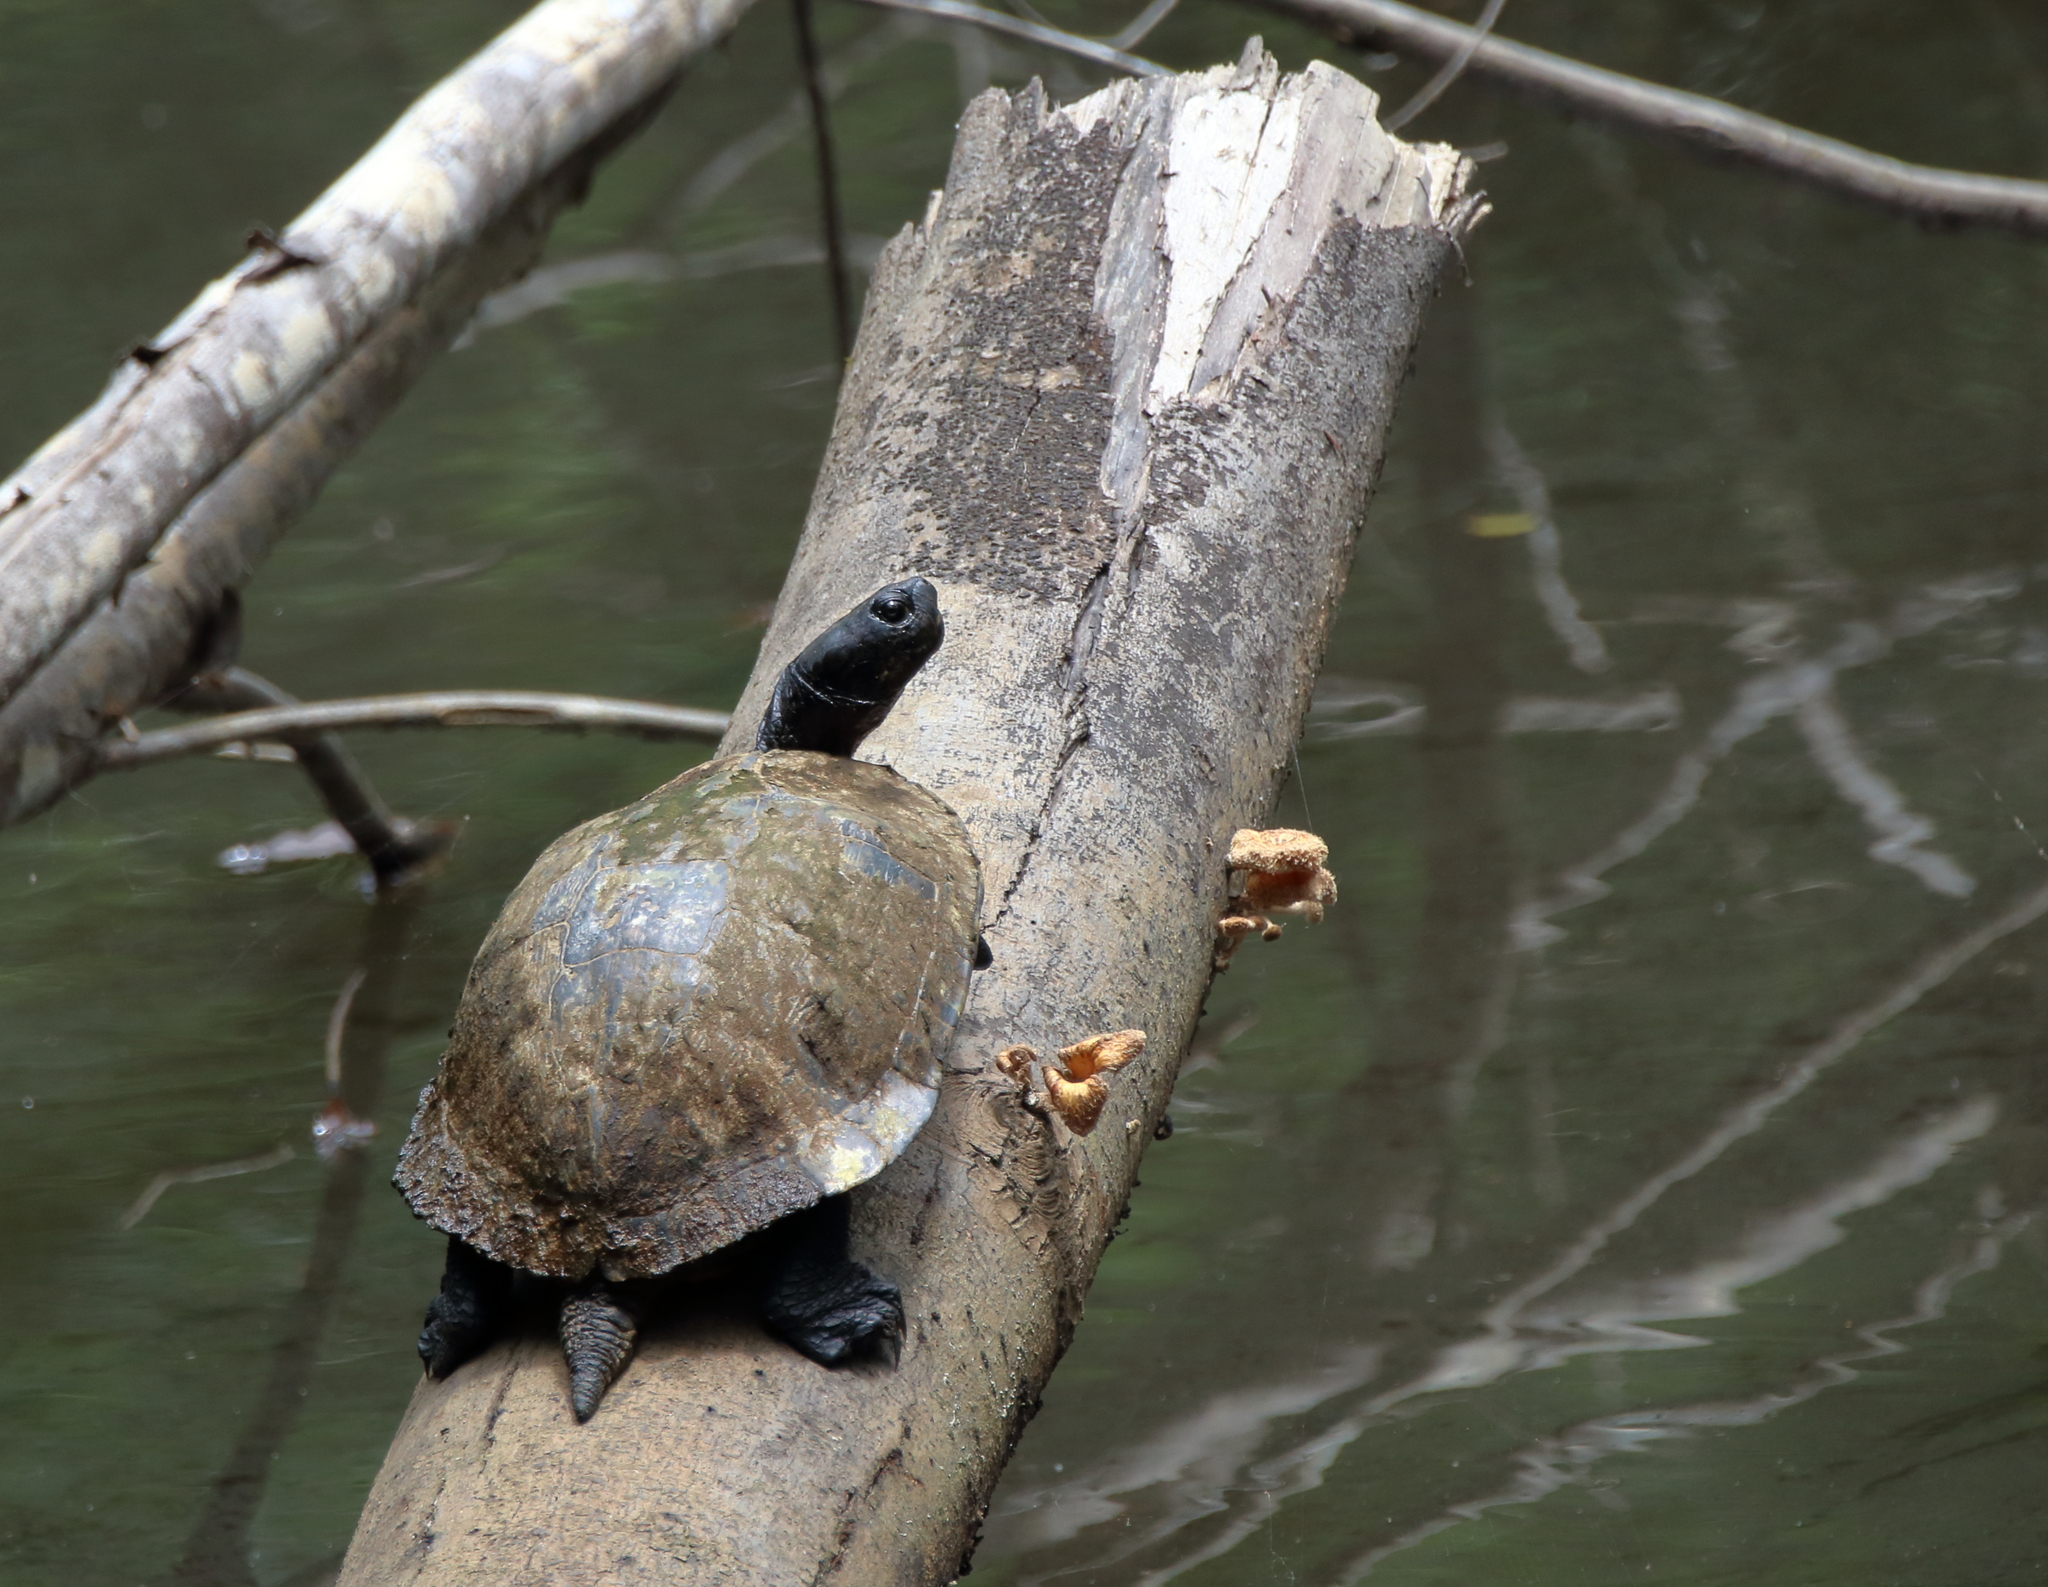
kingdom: Animalia
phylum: Chordata
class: Testudines
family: Emydidae
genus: Trachemys
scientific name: Trachemys scripta
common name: Slider
